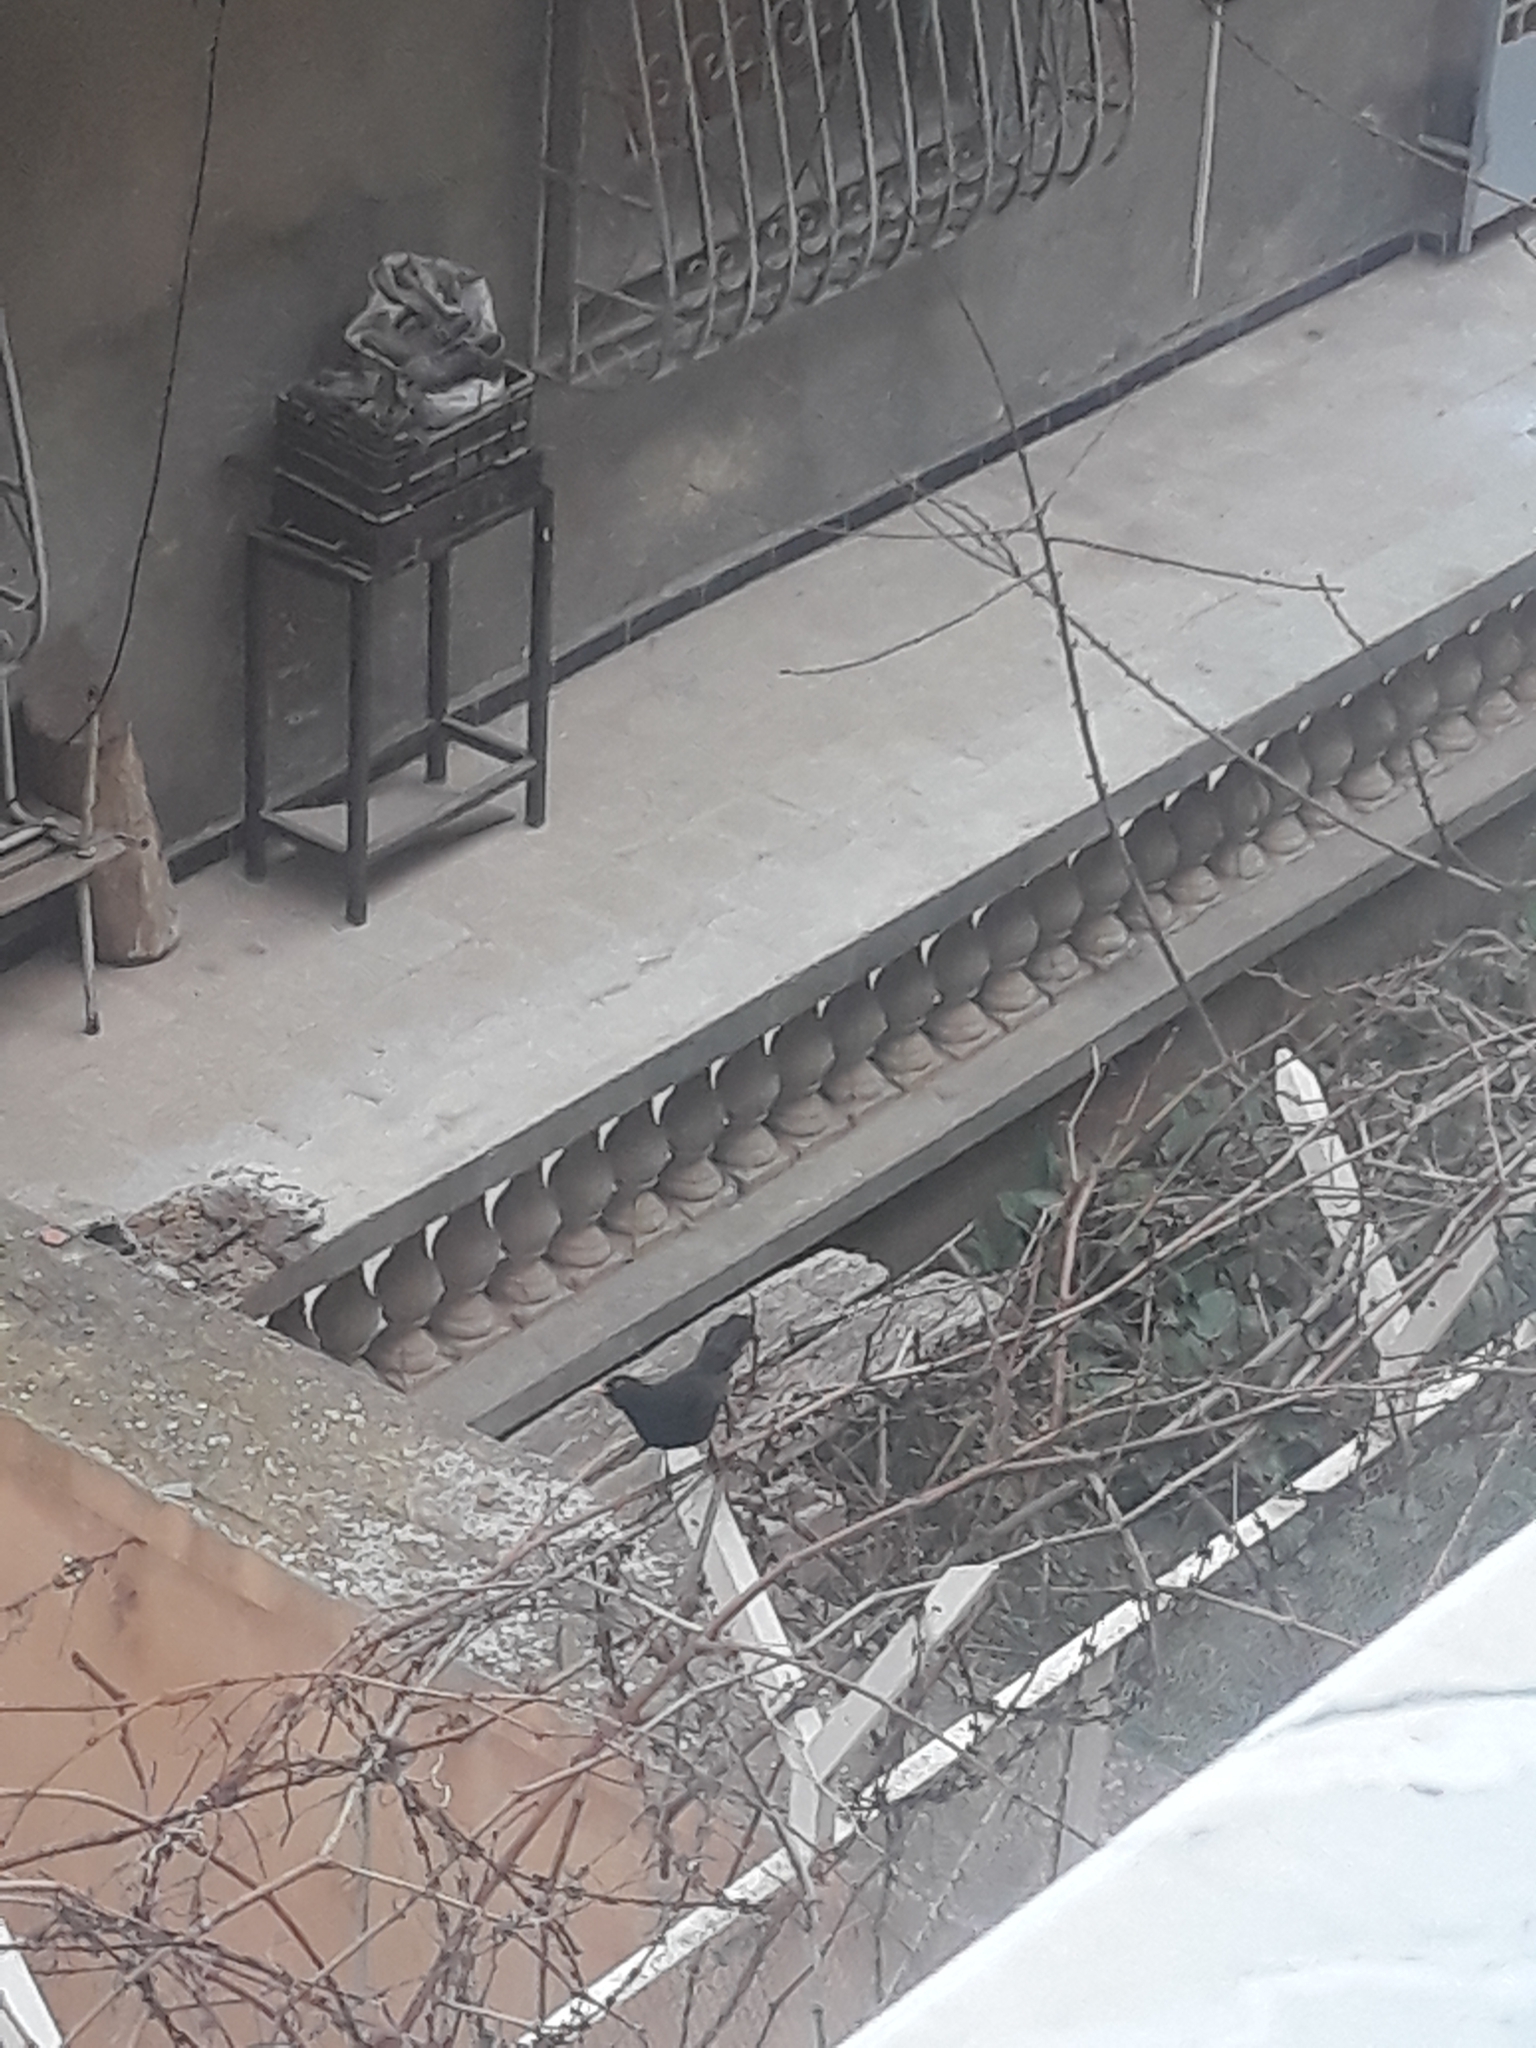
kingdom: Animalia
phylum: Chordata
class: Aves
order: Passeriformes
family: Turdidae
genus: Turdus
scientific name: Turdus merula
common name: Common blackbird
